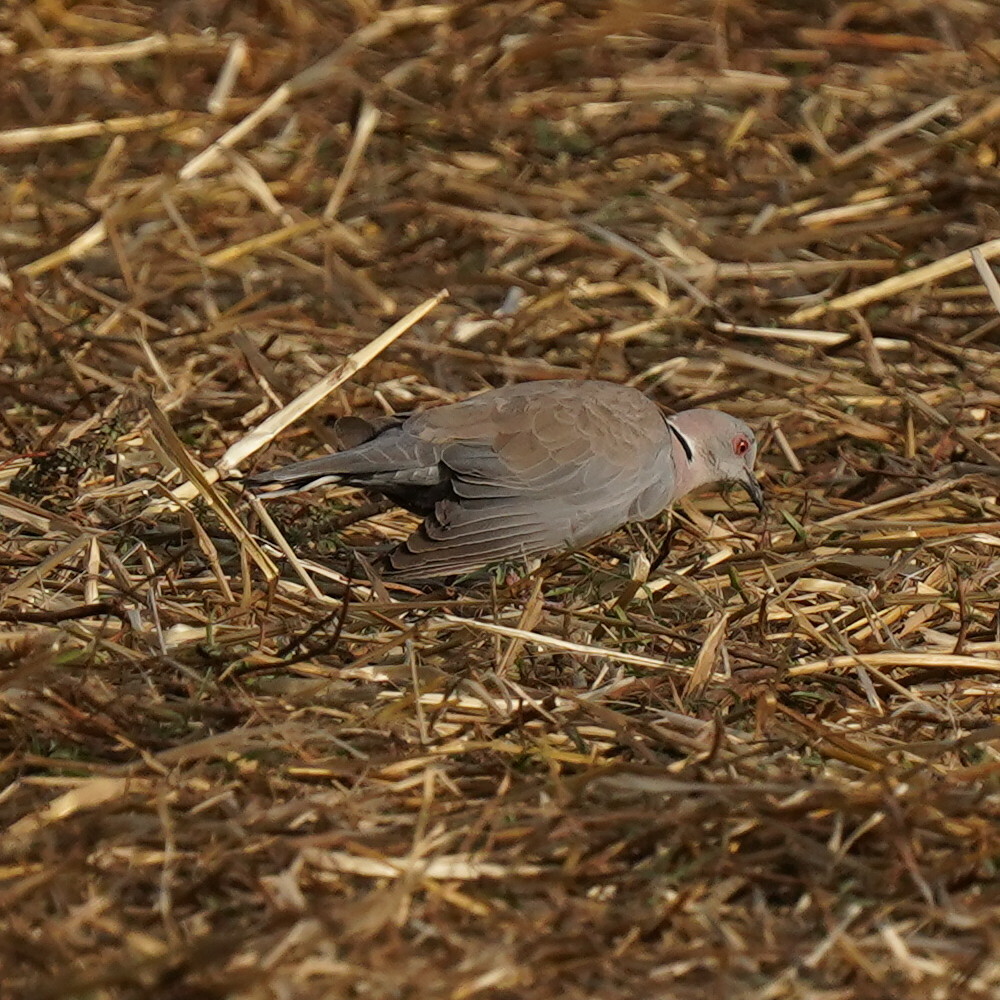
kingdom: Animalia
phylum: Chordata
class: Aves
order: Columbiformes
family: Columbidae
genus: Streptopelia
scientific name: Streptopelia decipiens
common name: Mourning collared dove
